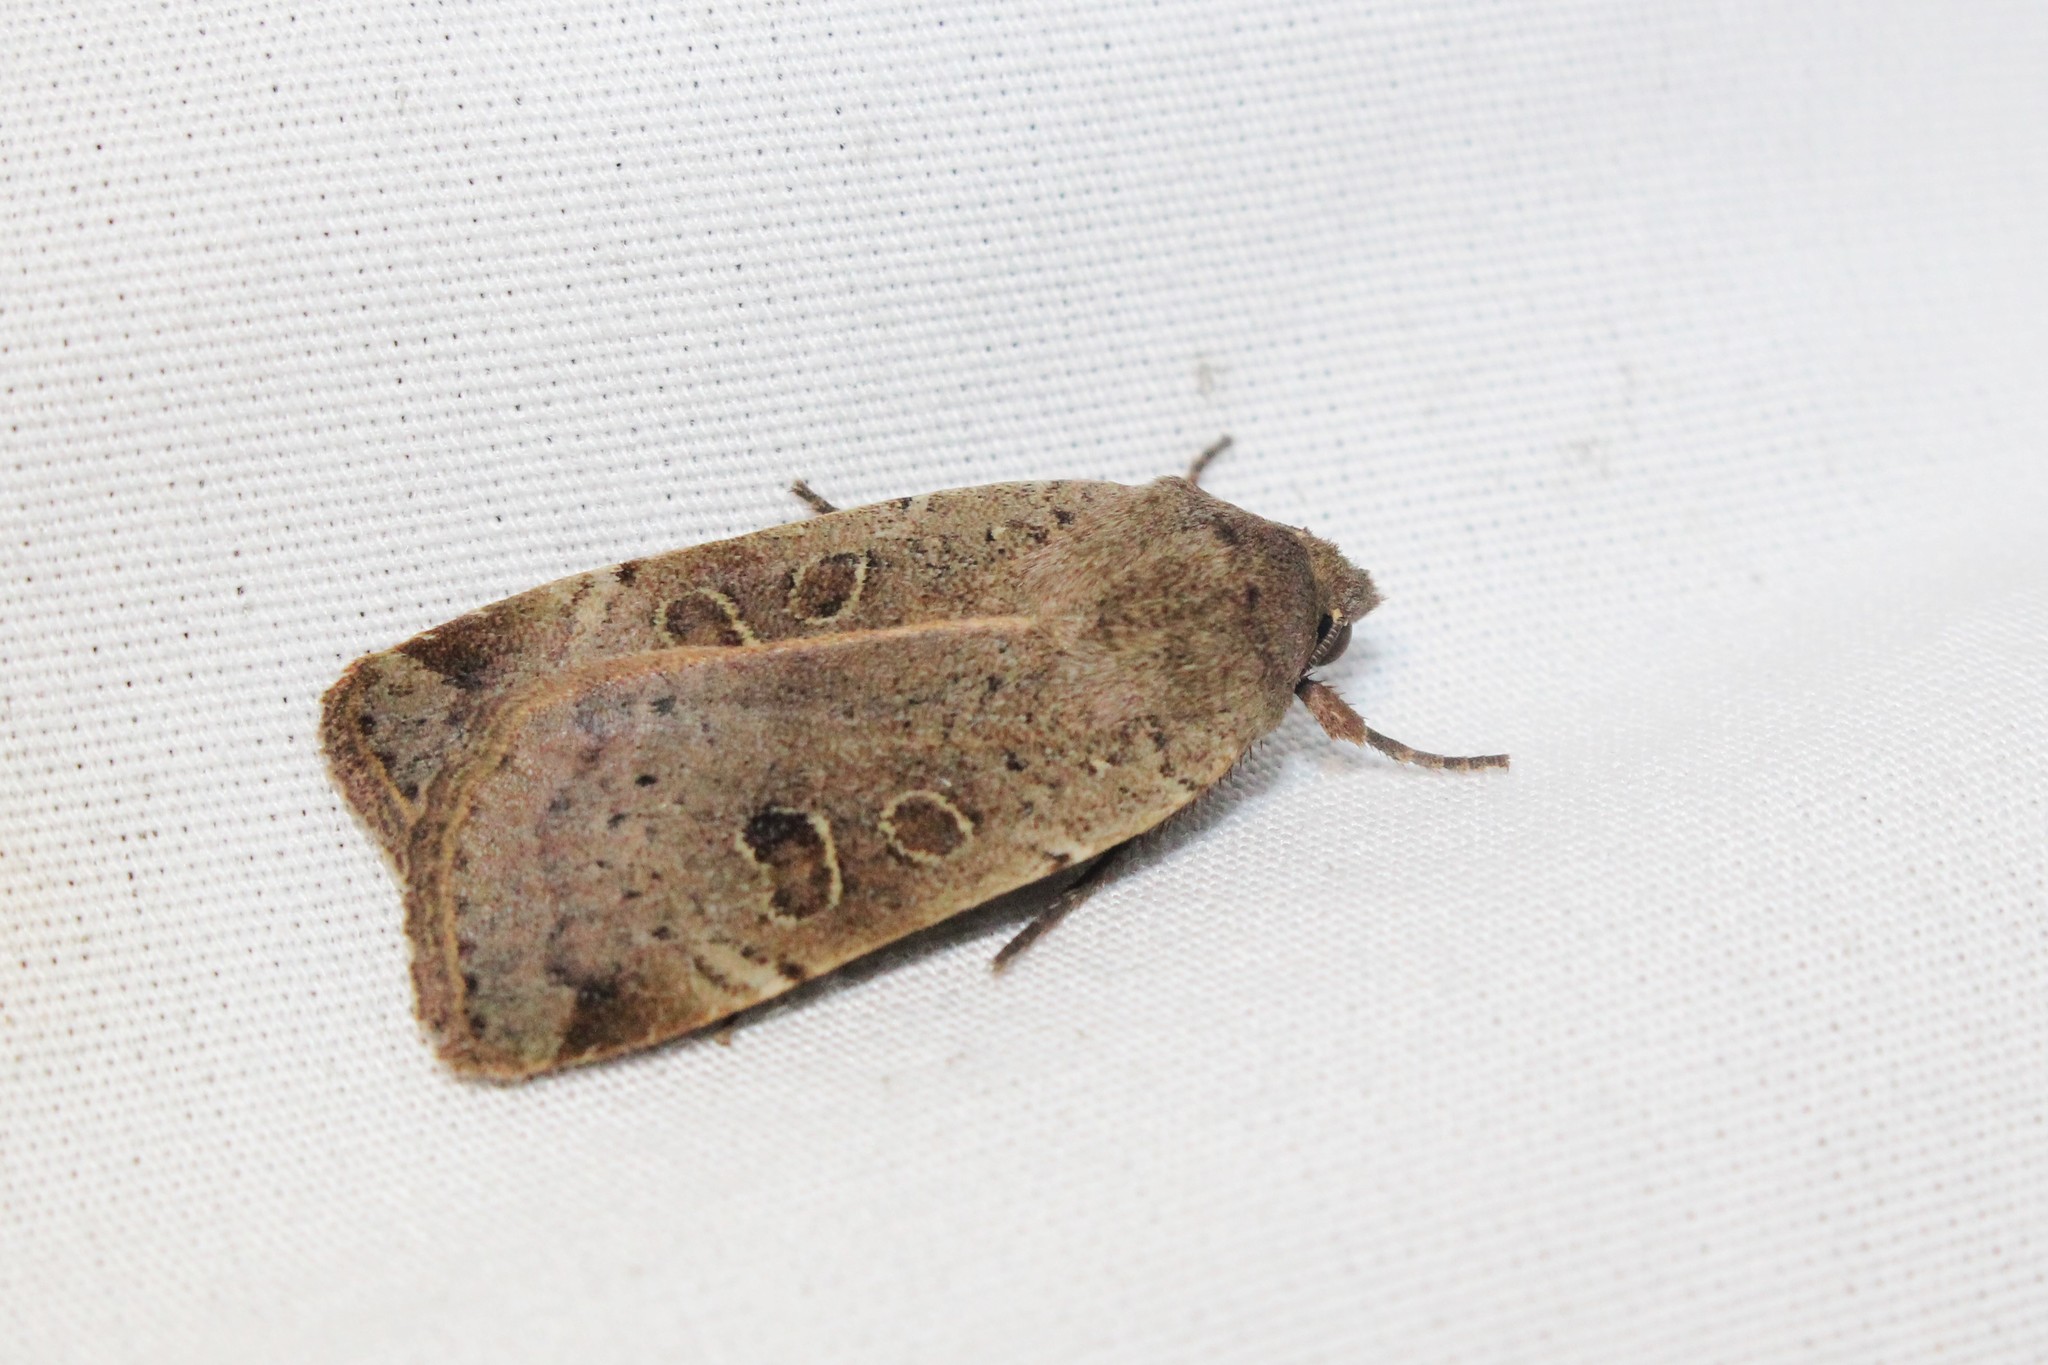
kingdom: Animalia
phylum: Arthropoda
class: Insecta
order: Lepidoptera
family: Noctuidae
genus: Noctua
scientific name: Noctua comes
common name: Lesser yellow underwing
